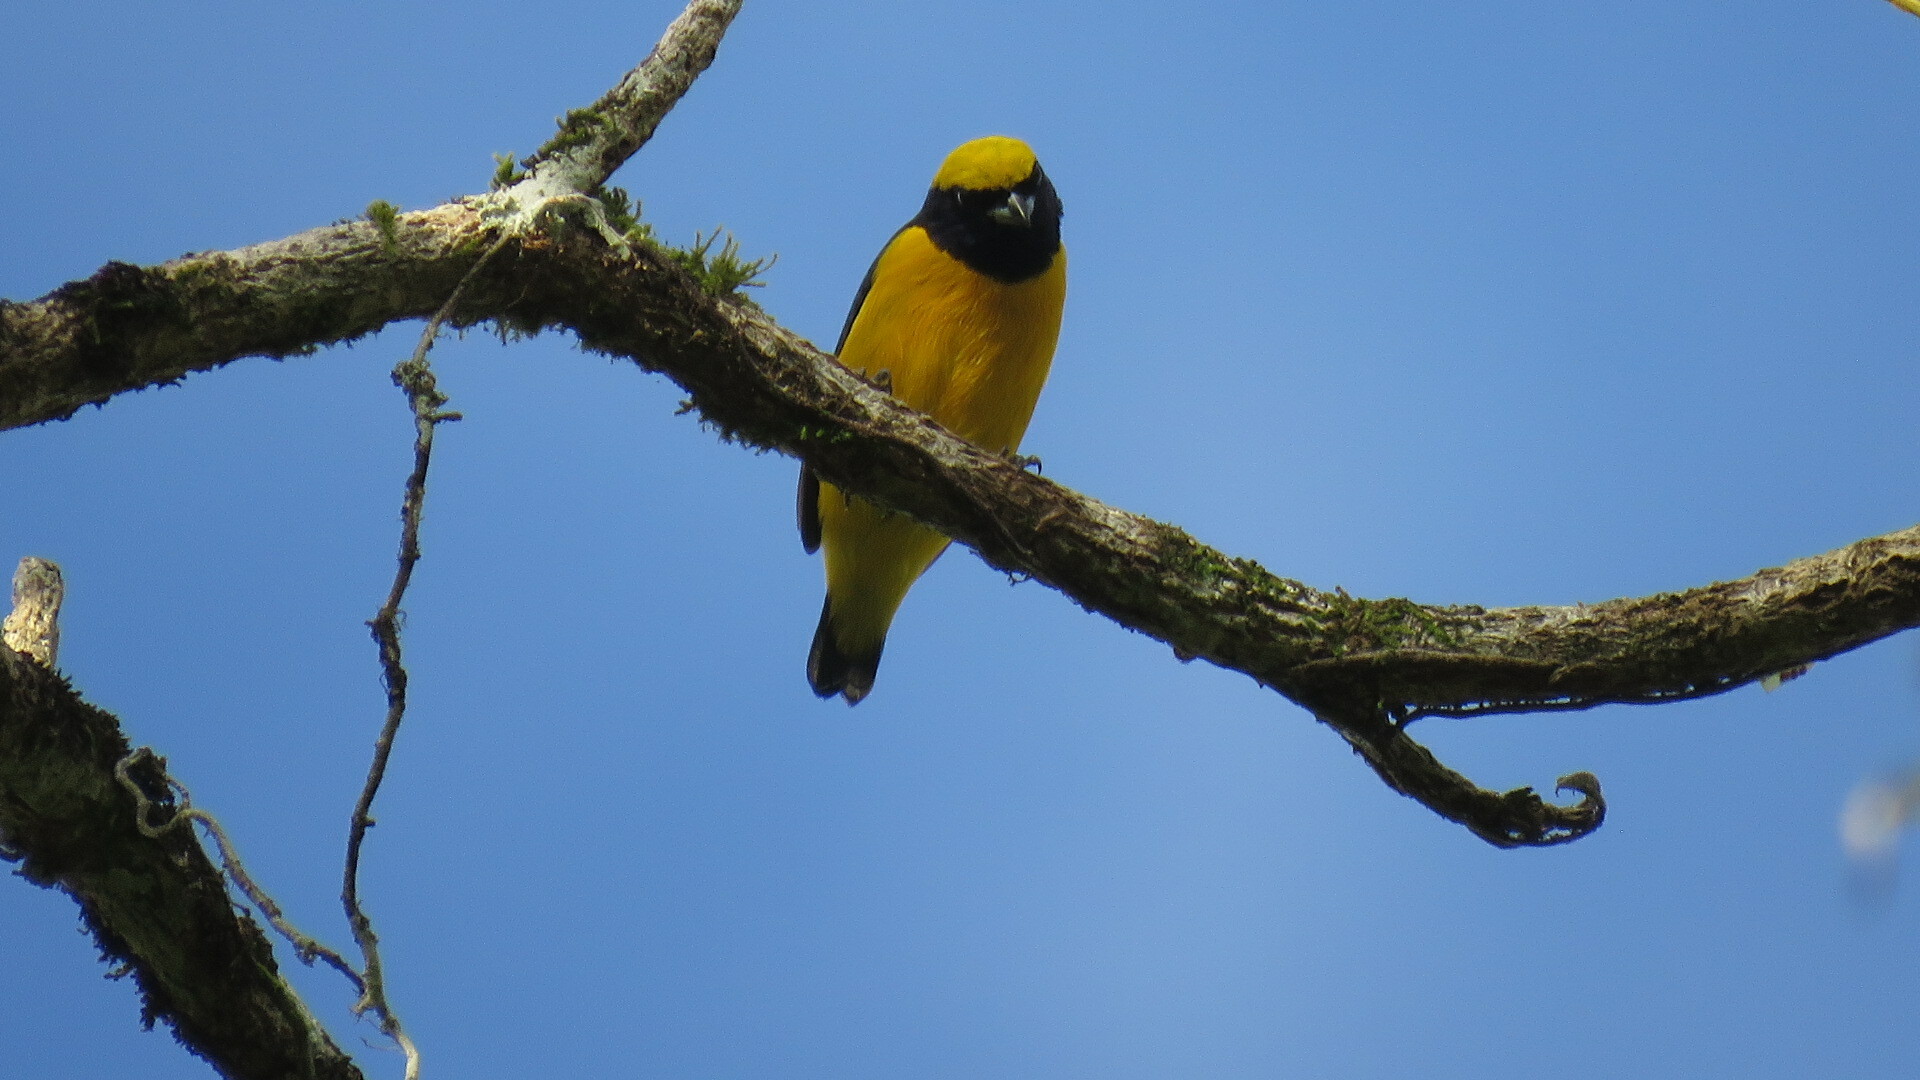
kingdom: Animalia
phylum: Chordata
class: Aves
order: Passeriformes
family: Fringillidae
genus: Euphonia
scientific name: Euphonia luteicapilla
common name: Yellow-crowned euphonia
